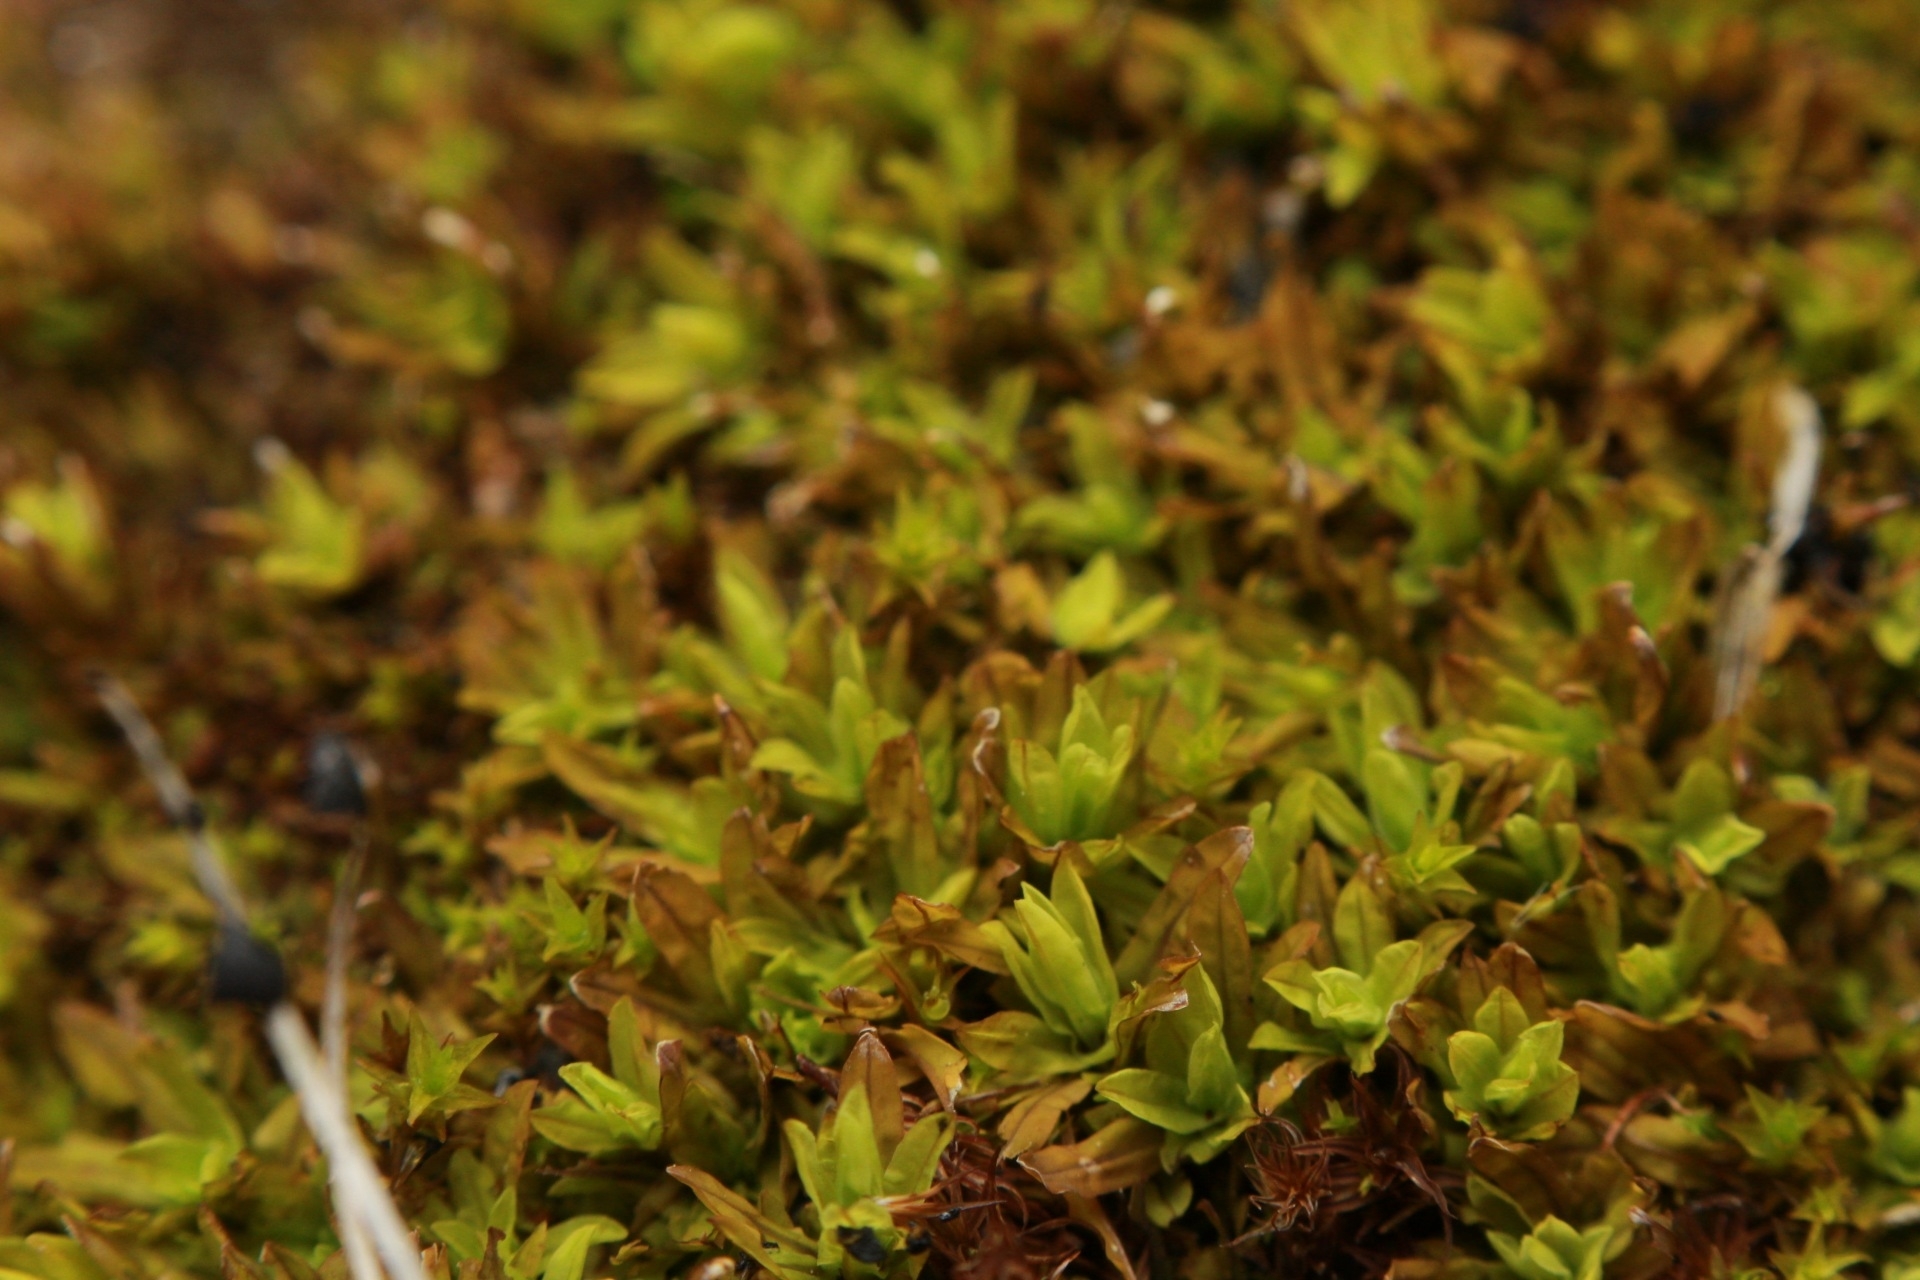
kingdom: Plantae
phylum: Bryophyta
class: Bryopsida
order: Encalyptales
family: Encalyptaceae
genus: Encalypta
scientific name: Encalypta streptocarpa
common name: Spiral extinguisher-moss
